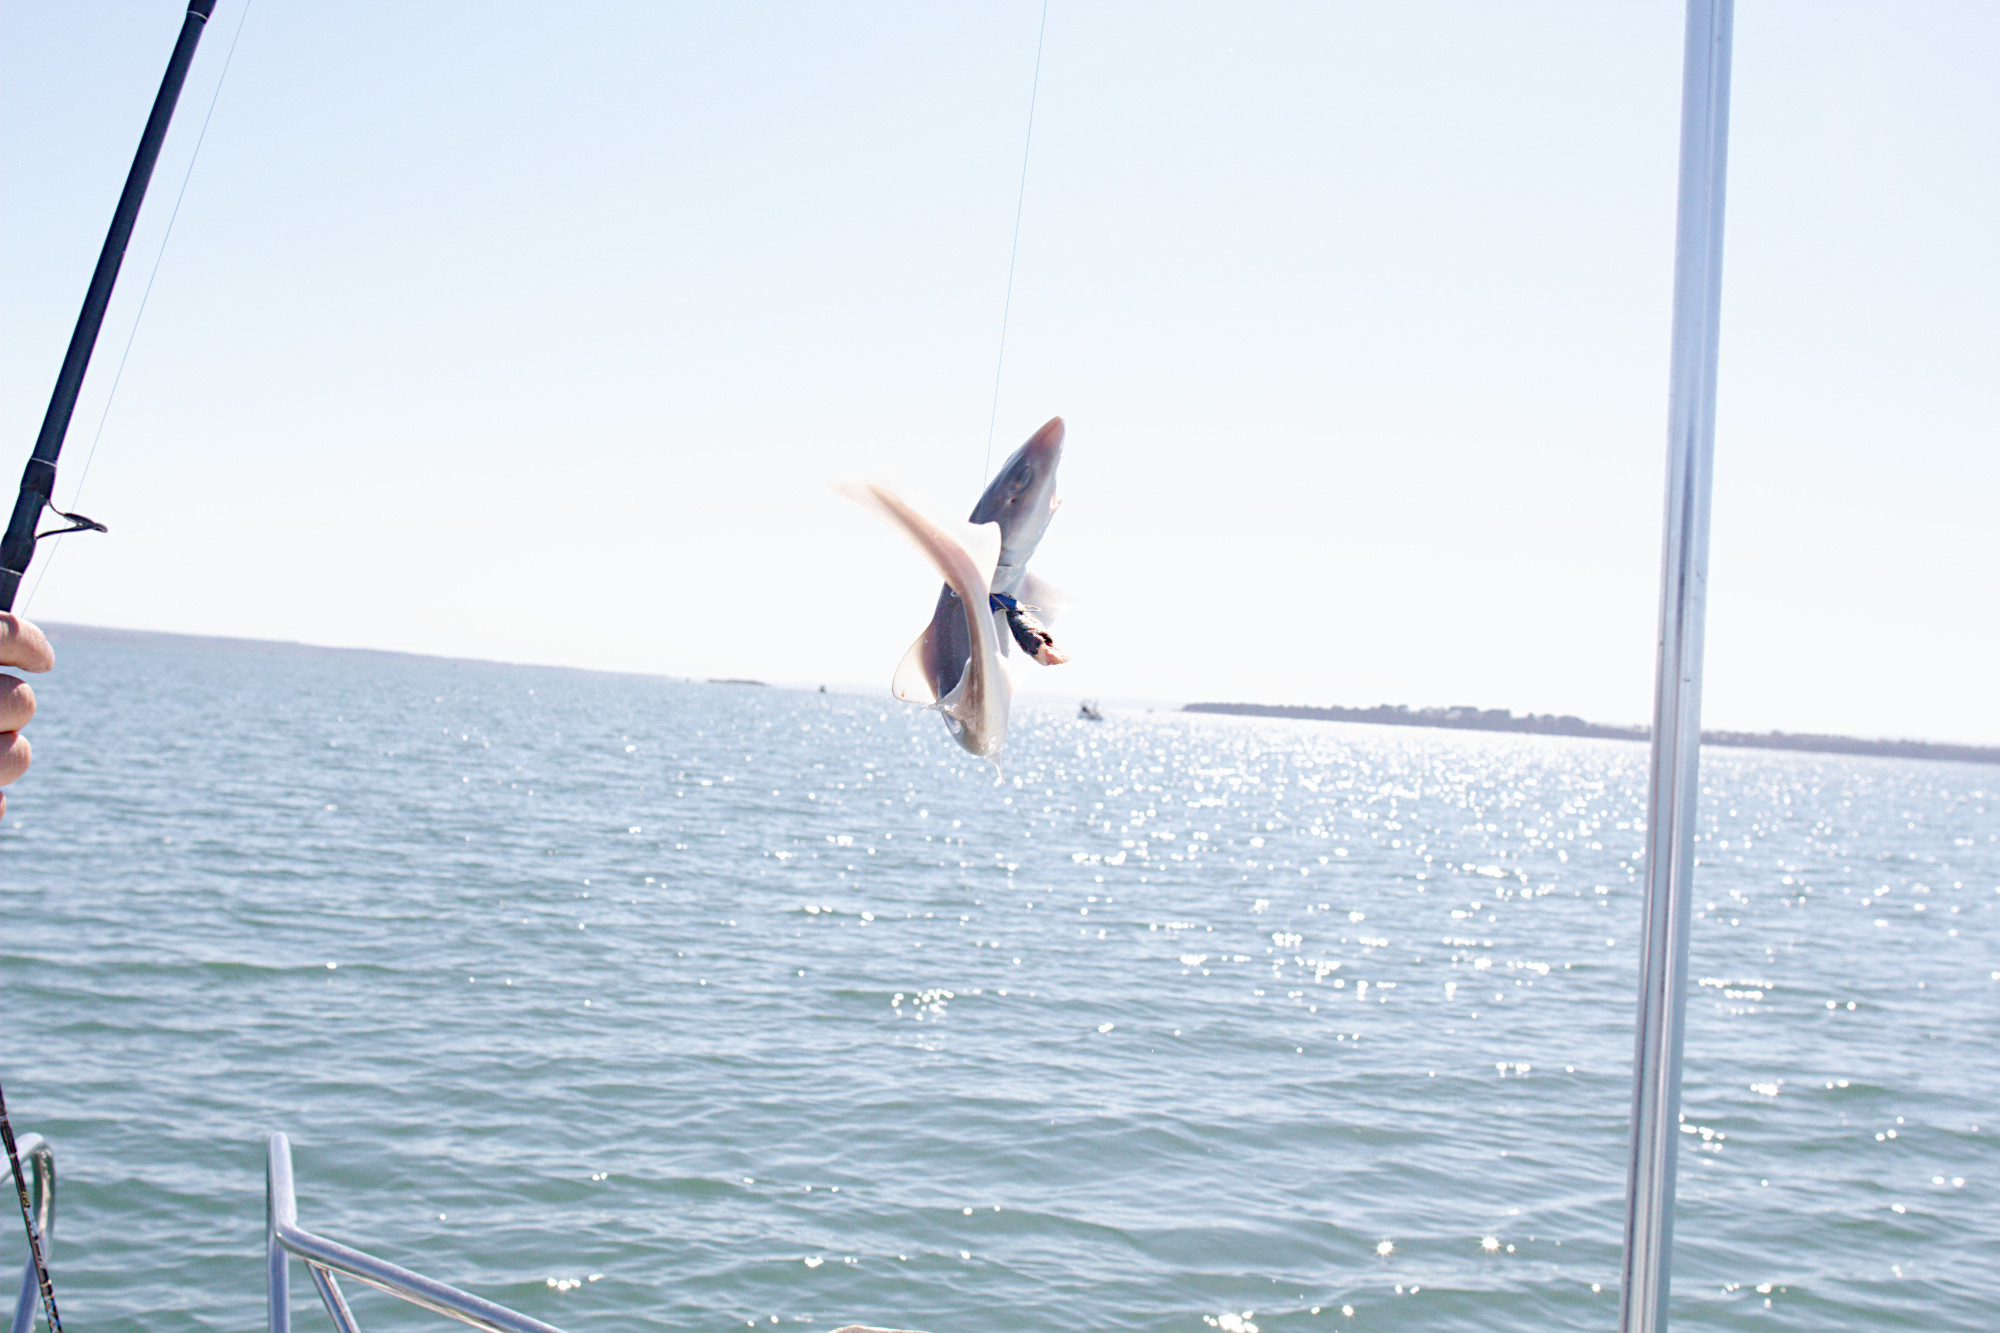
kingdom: Animalia
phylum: Chordata
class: Elasmobranchii
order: Carcharhiniformes
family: Triakidae
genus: Mustelus
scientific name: Mustelus antarcticus
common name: Gummy shark
